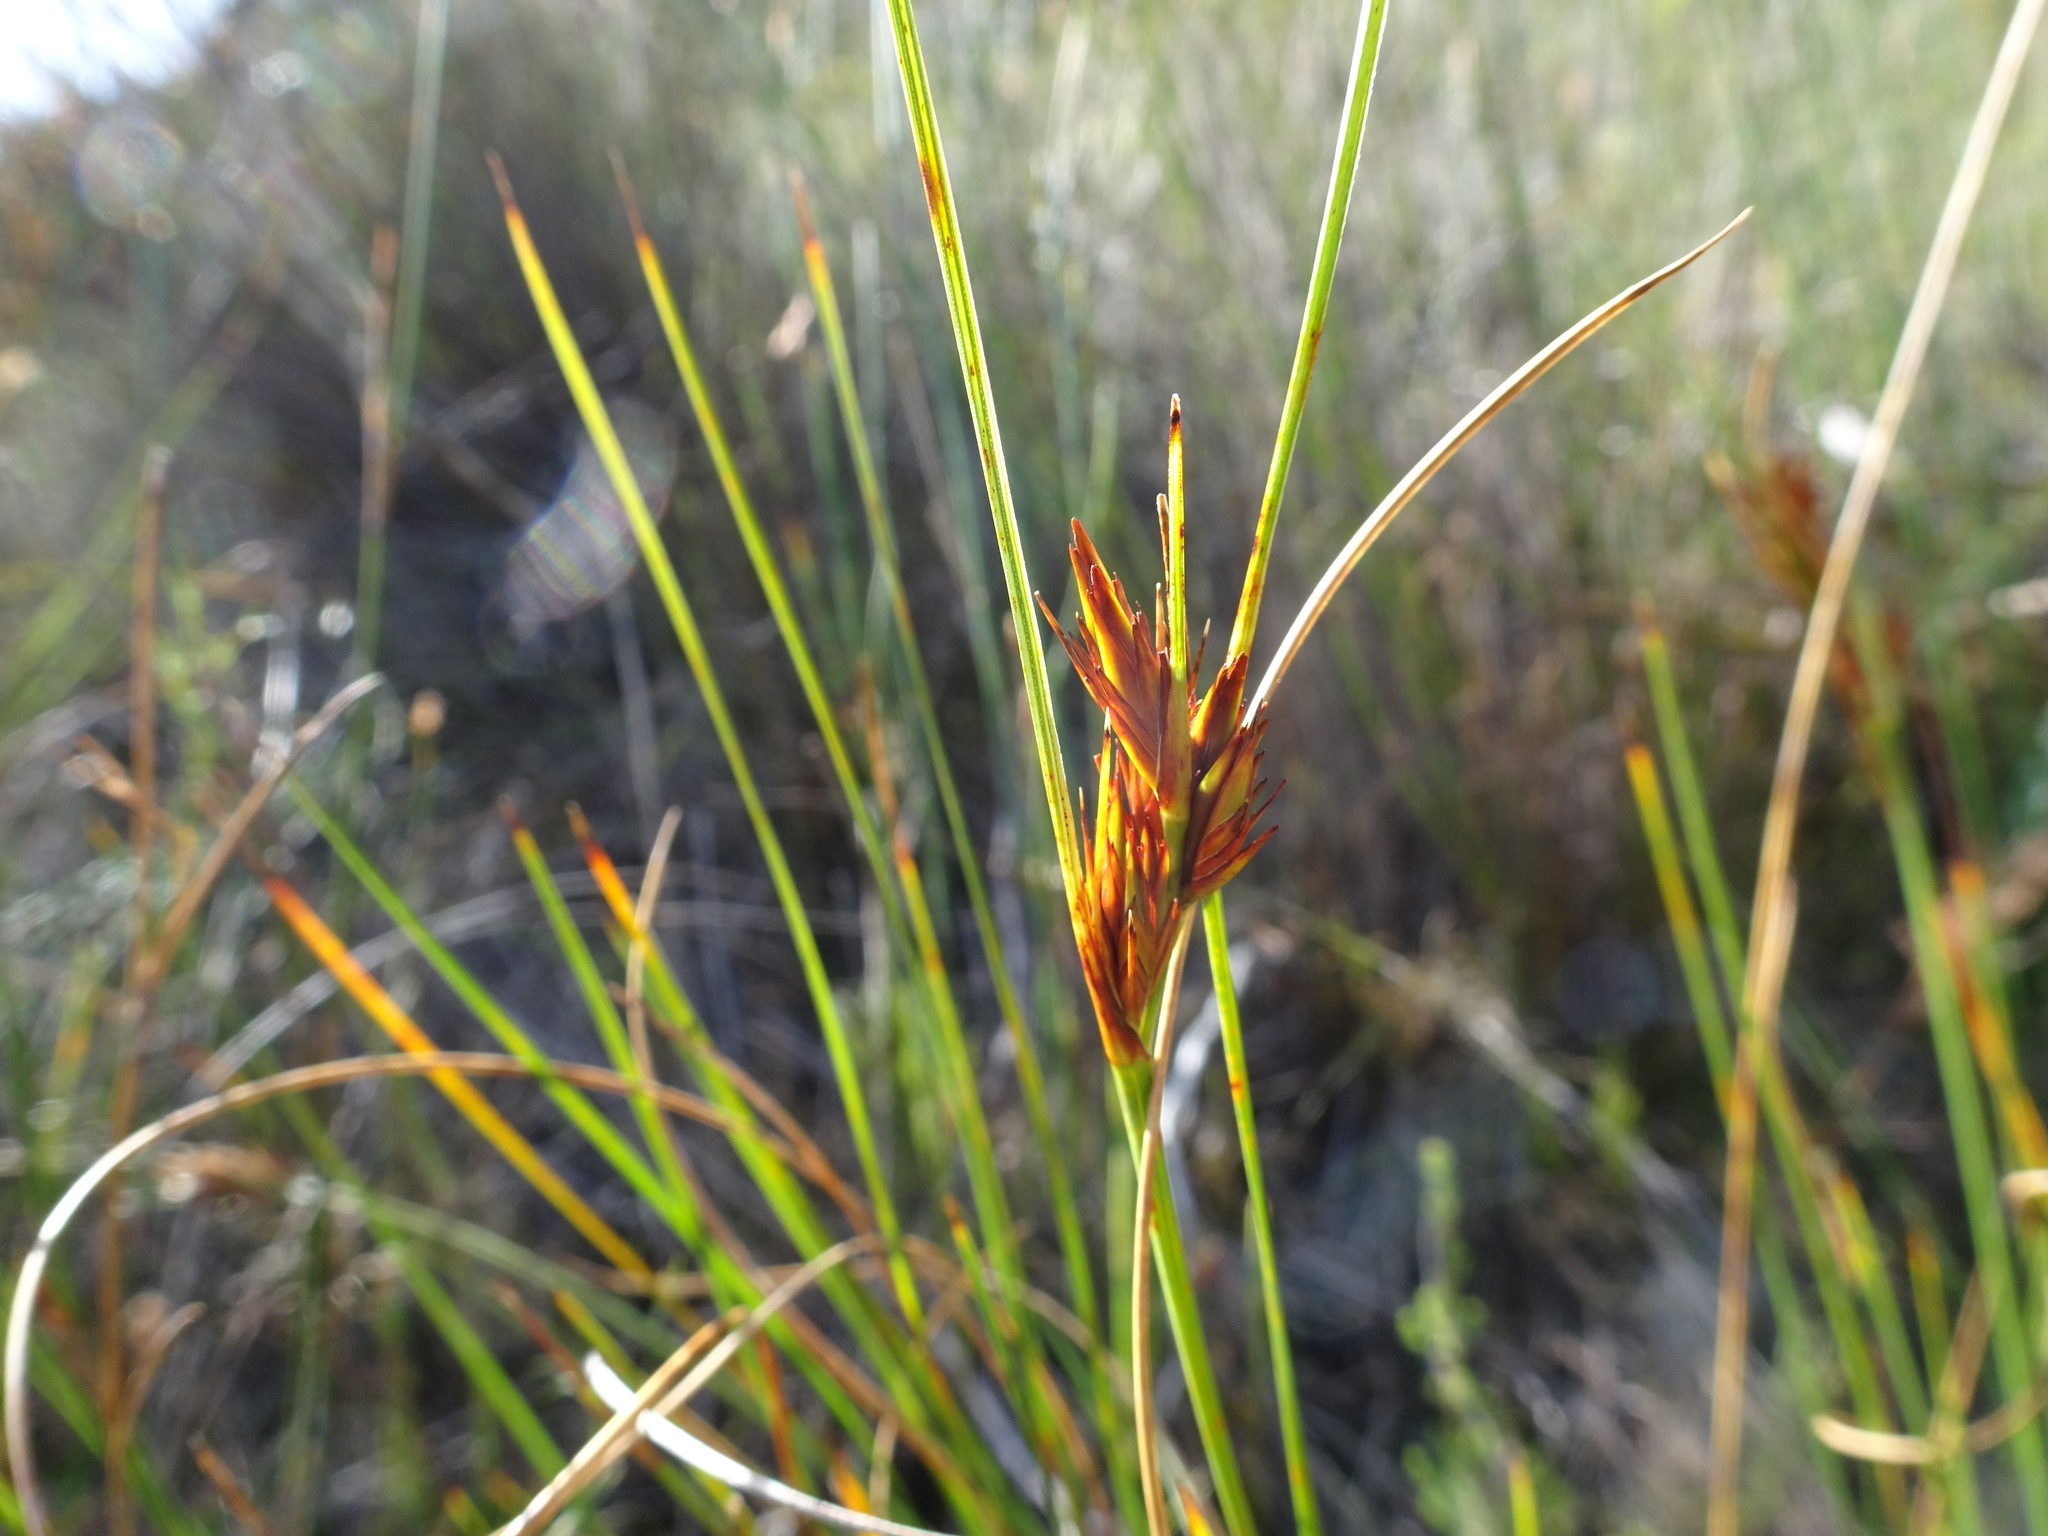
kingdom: Plantae
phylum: Tracheophyta
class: Liliopsida
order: Poales
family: Cyperaceae
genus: Schoenus
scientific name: Schoenus compar
